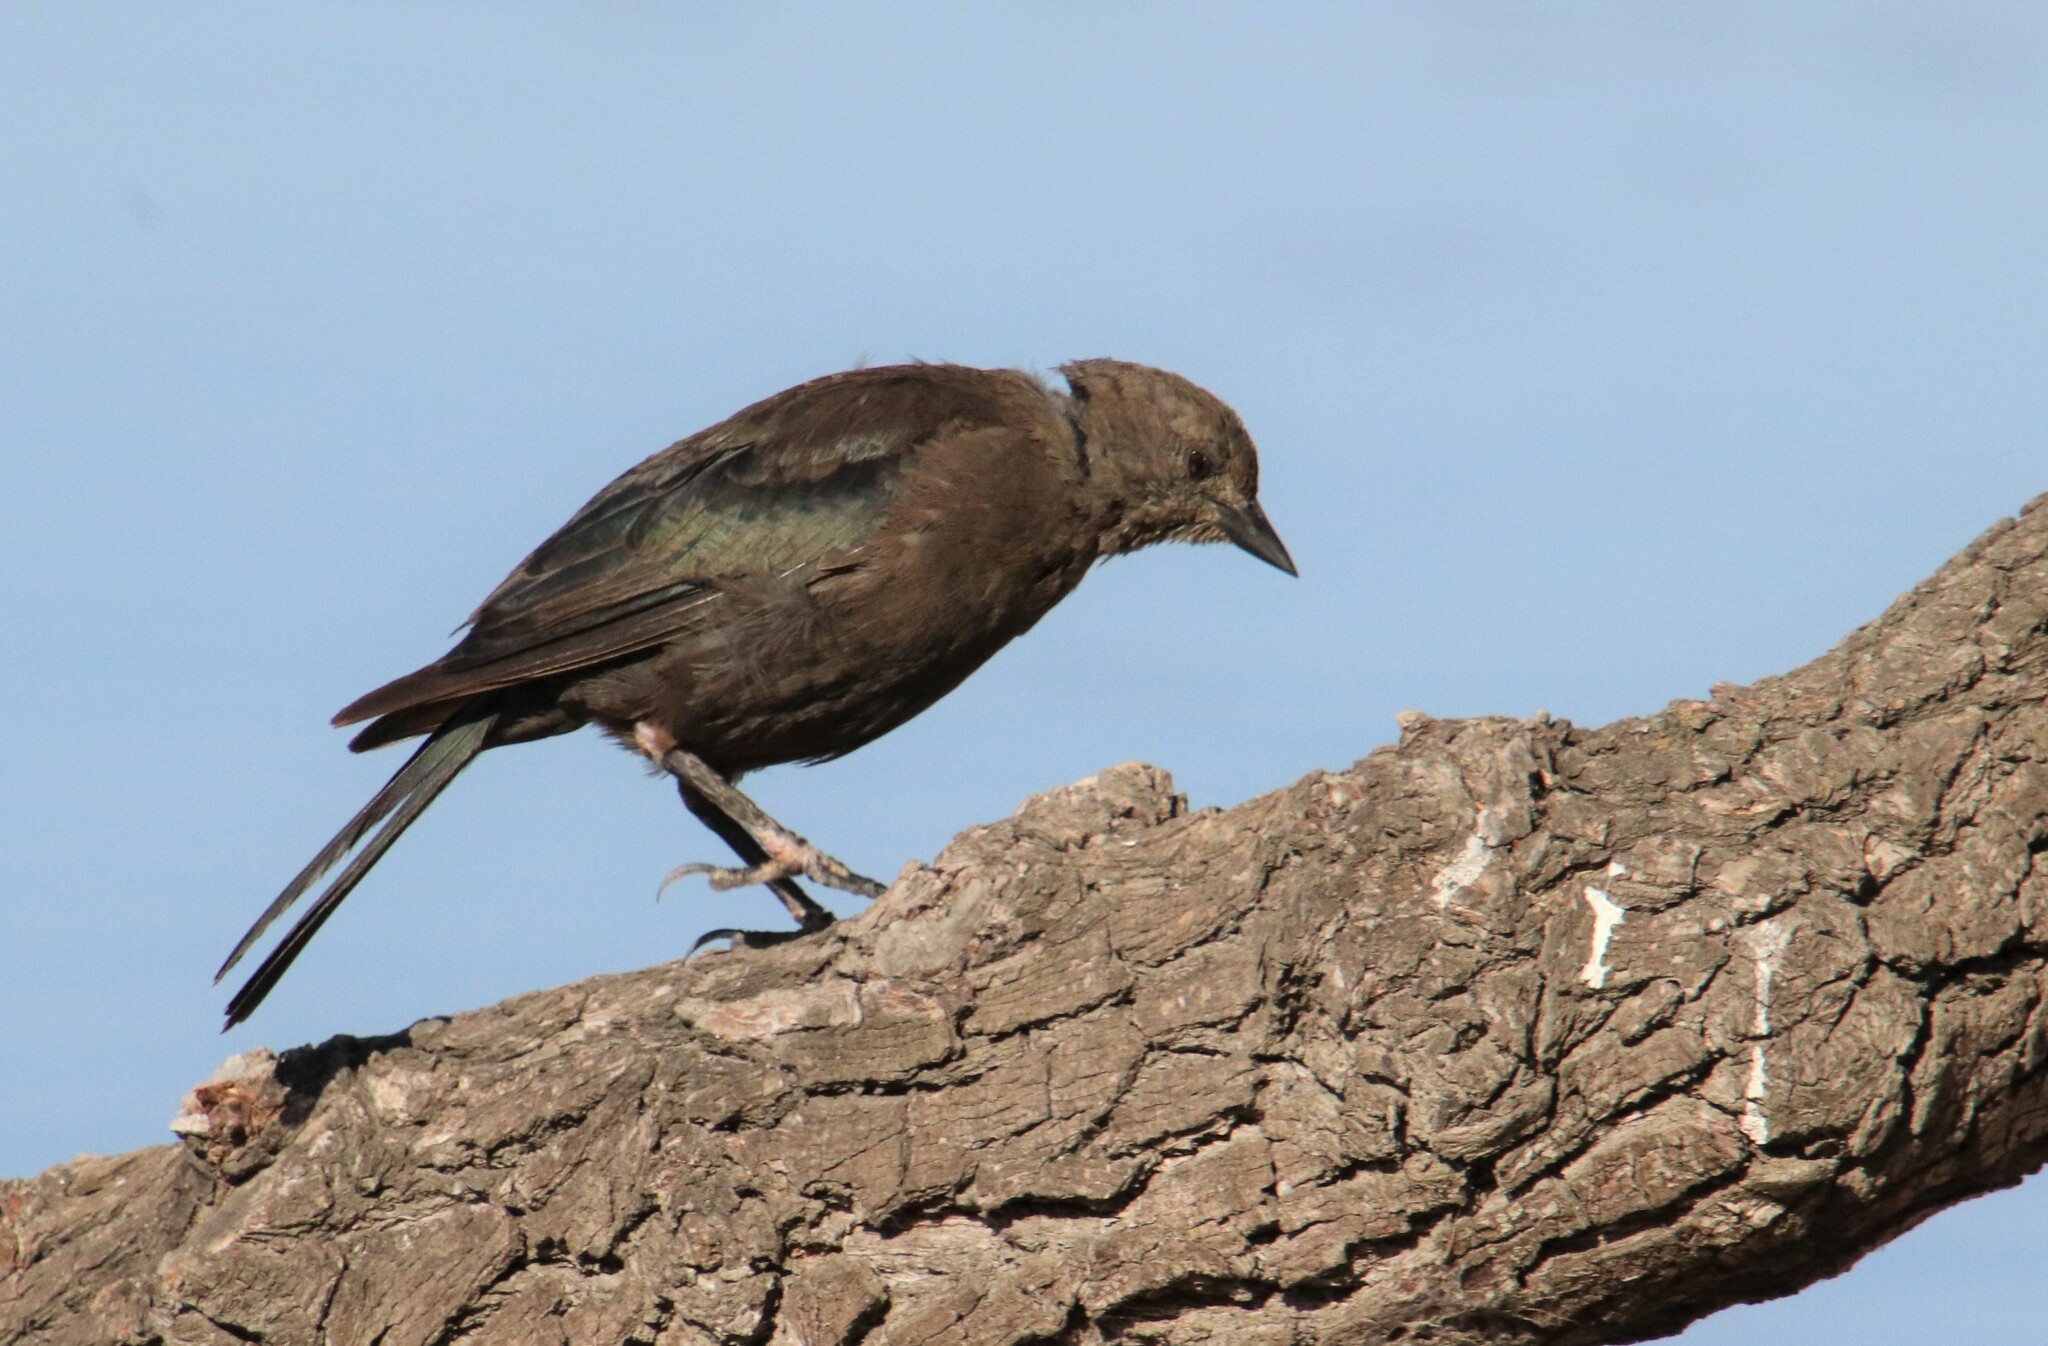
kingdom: Animalia
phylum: Chordata
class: Aves
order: Passeriformes
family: Icteridae
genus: Euphagus
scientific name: Euphagus cyanocephalus
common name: Brewer's blackbird
